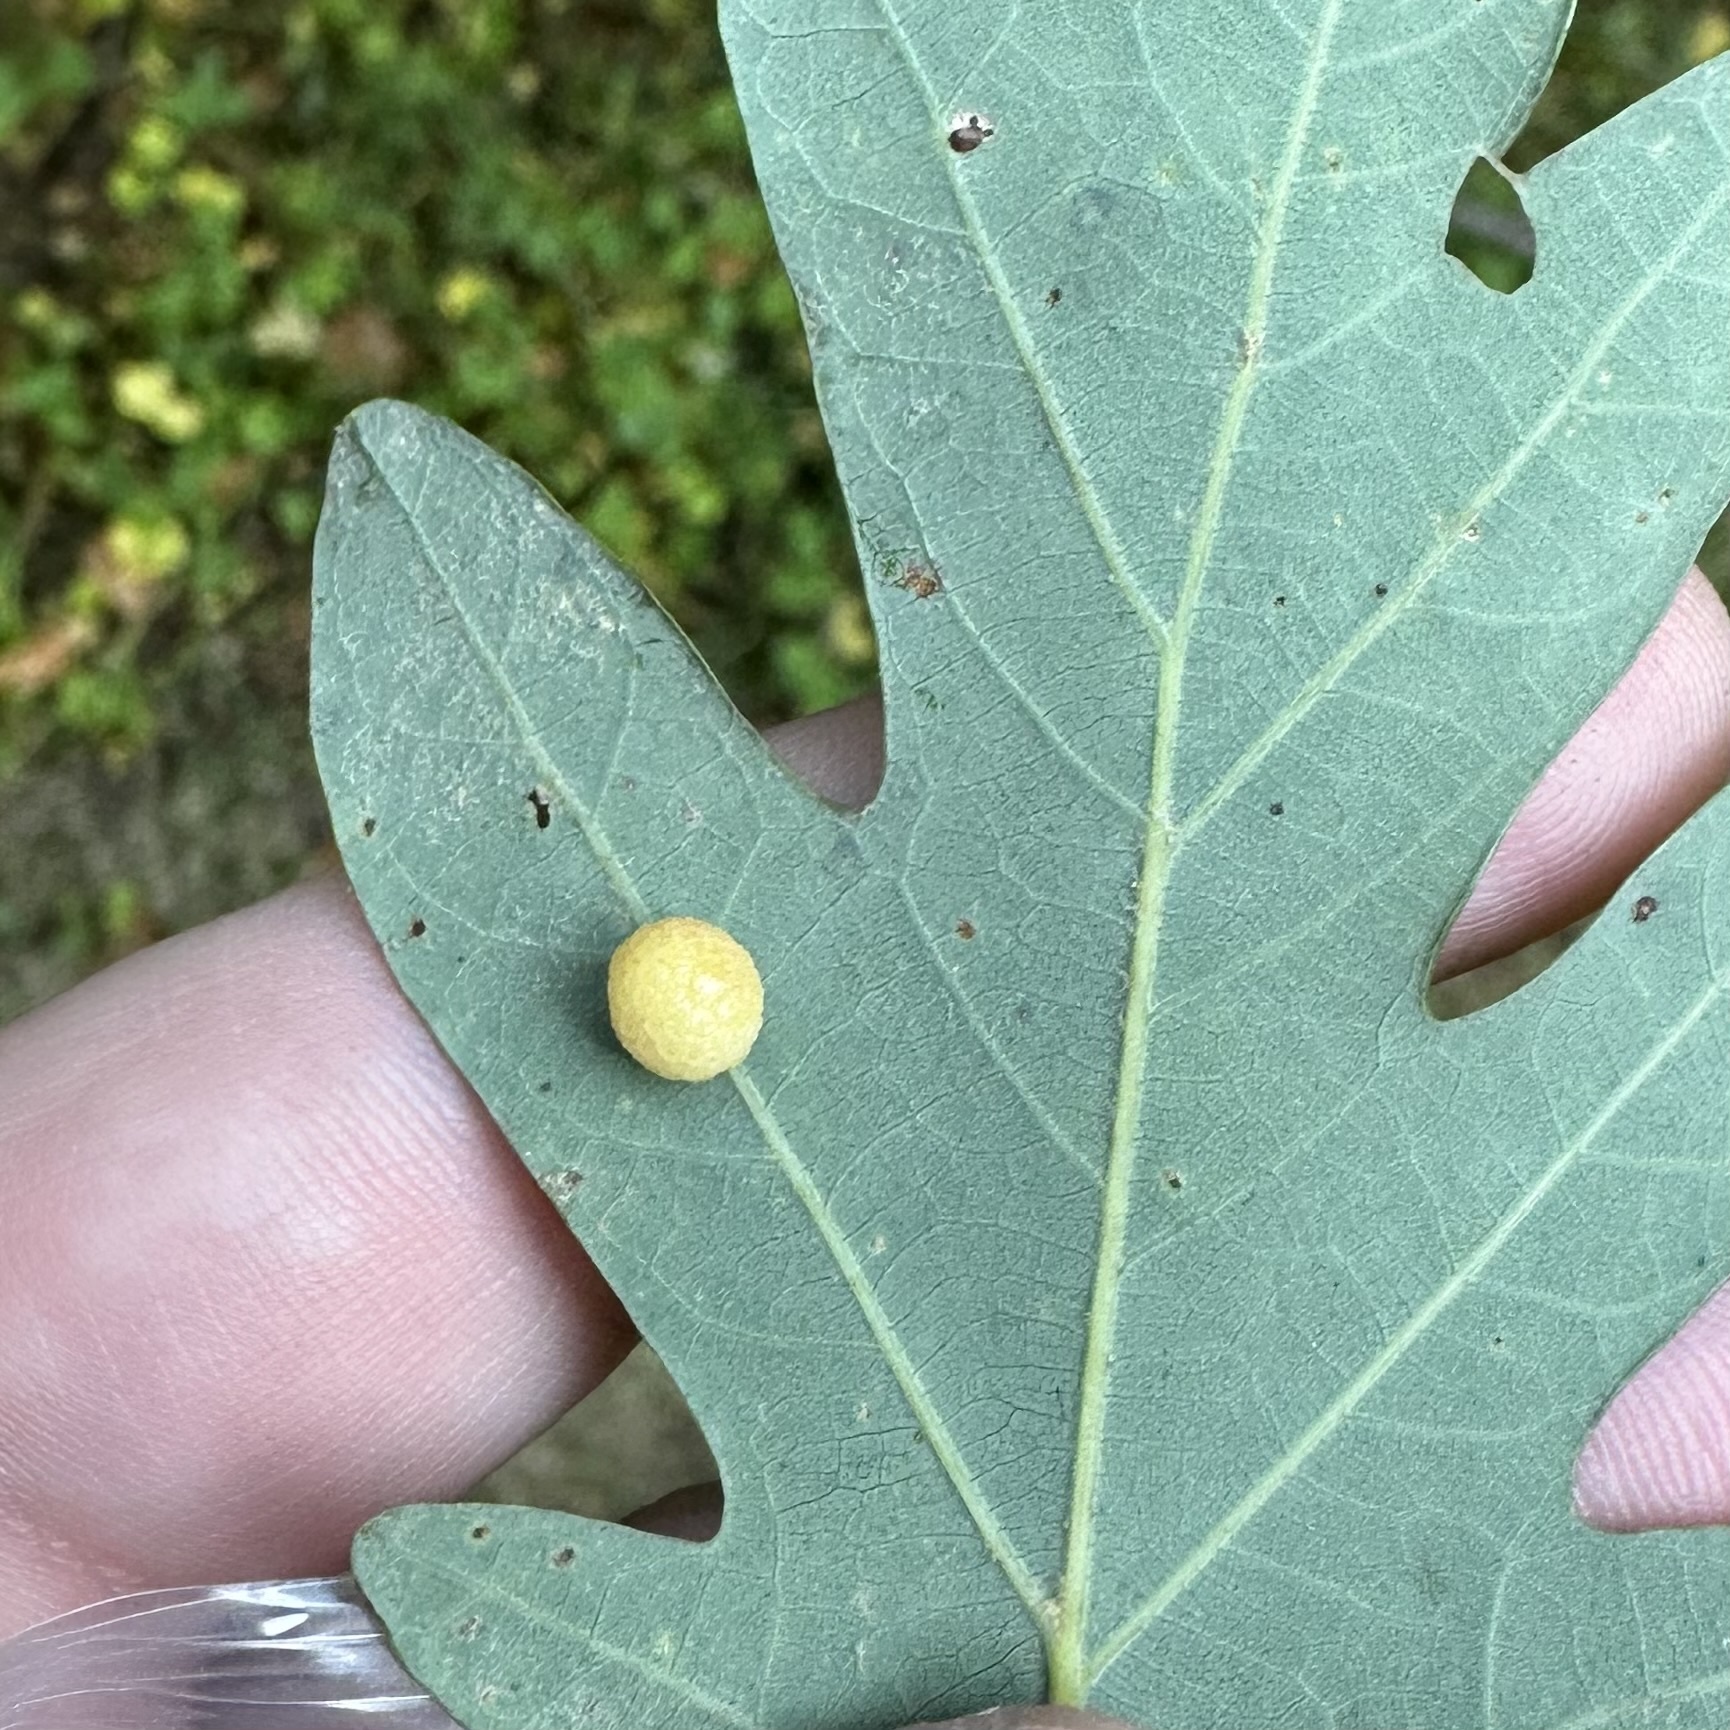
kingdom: Animalia
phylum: Arthropoda
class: Insecta
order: Hymenoptera
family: Cynipidae
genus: Acraspis
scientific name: Acraspis
